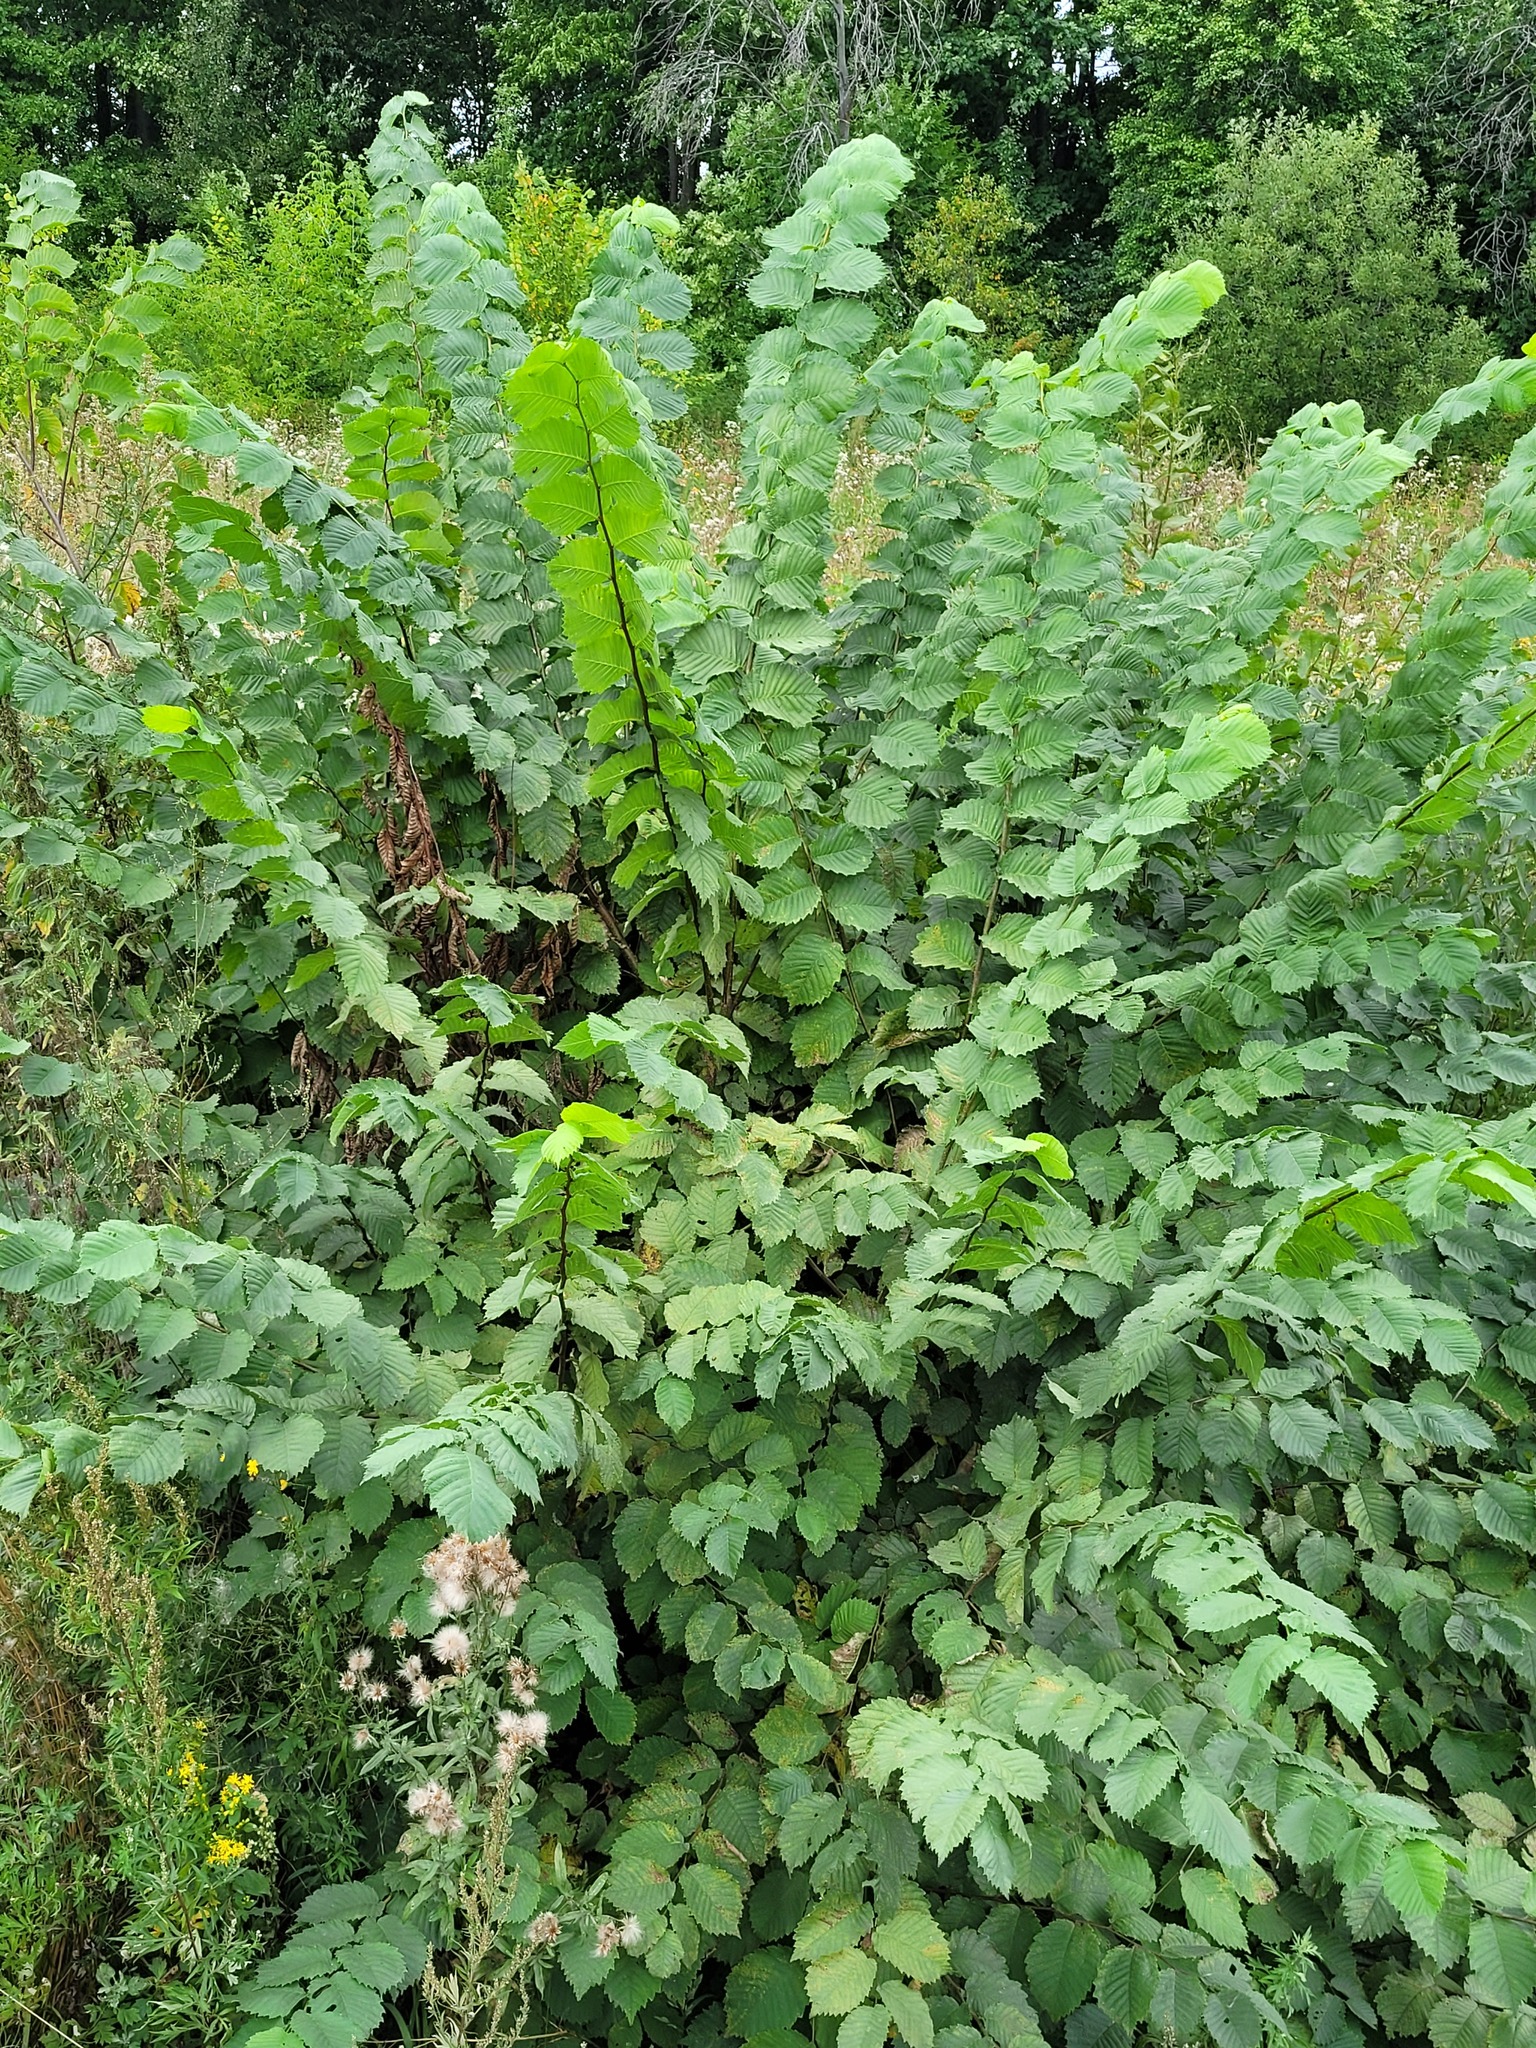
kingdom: Plantae
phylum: Tracheophyta
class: Magnoliopsida
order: Rosales
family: Ulmaceae
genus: Ulmus
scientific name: Ulmus laevis
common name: European white-elm
